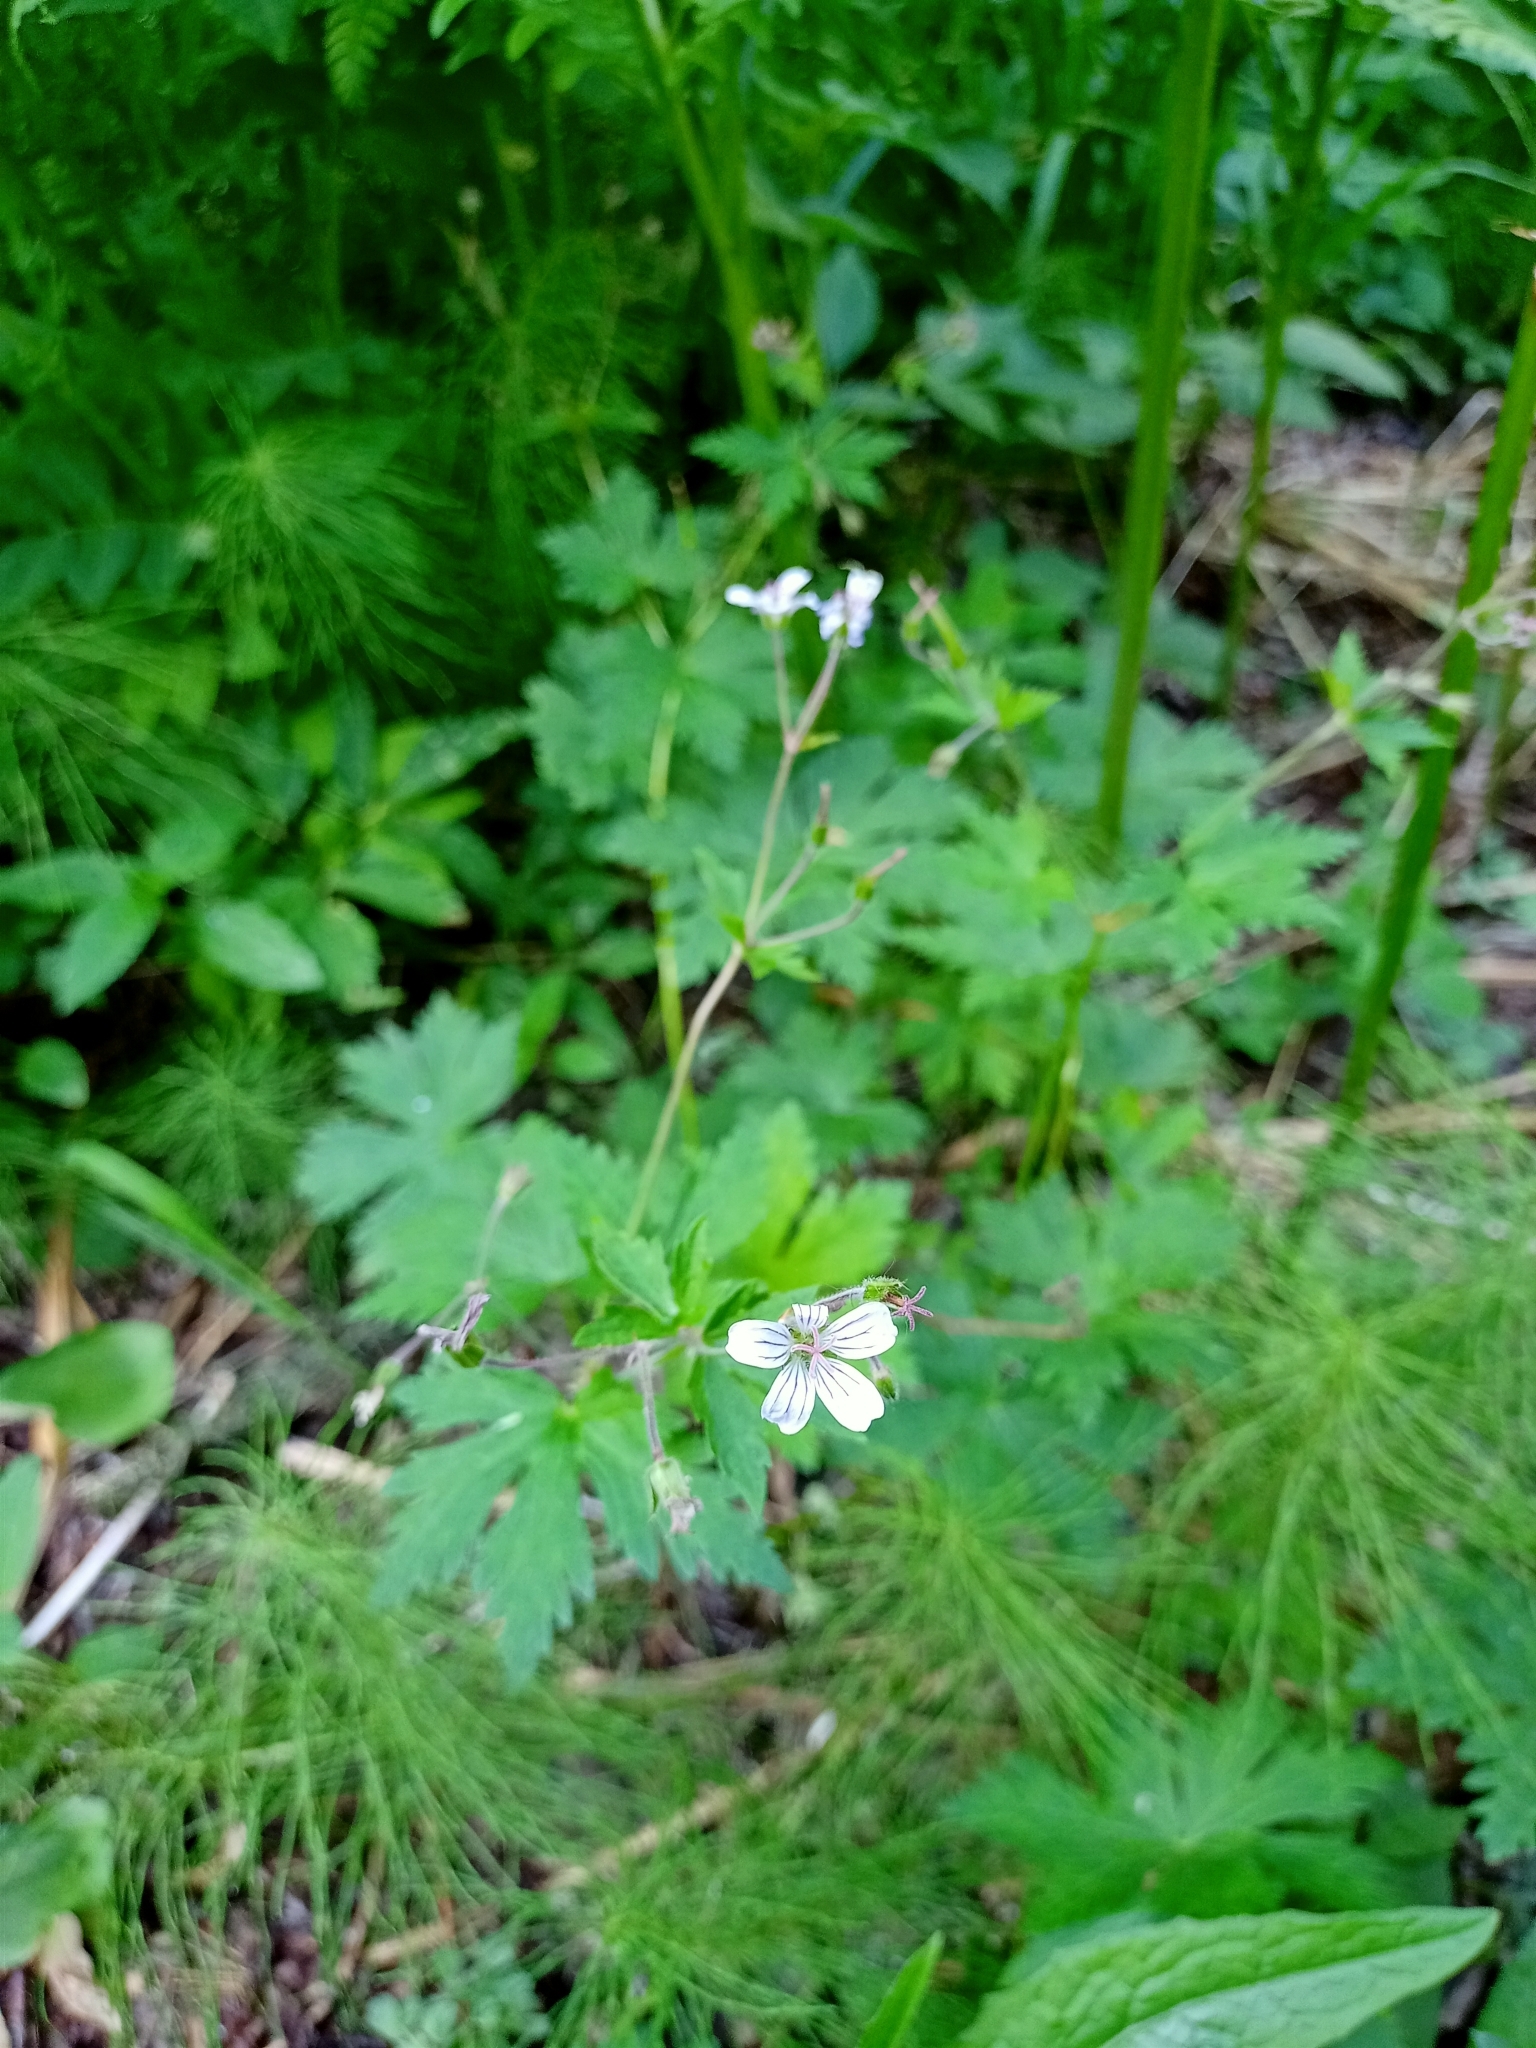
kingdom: Plantae
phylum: Tracheophyta
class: Magnoliopsida
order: Geraniales
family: Geraniaceae
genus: Geranium
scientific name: Geranium sibiricum
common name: Siberian crane's-bill
